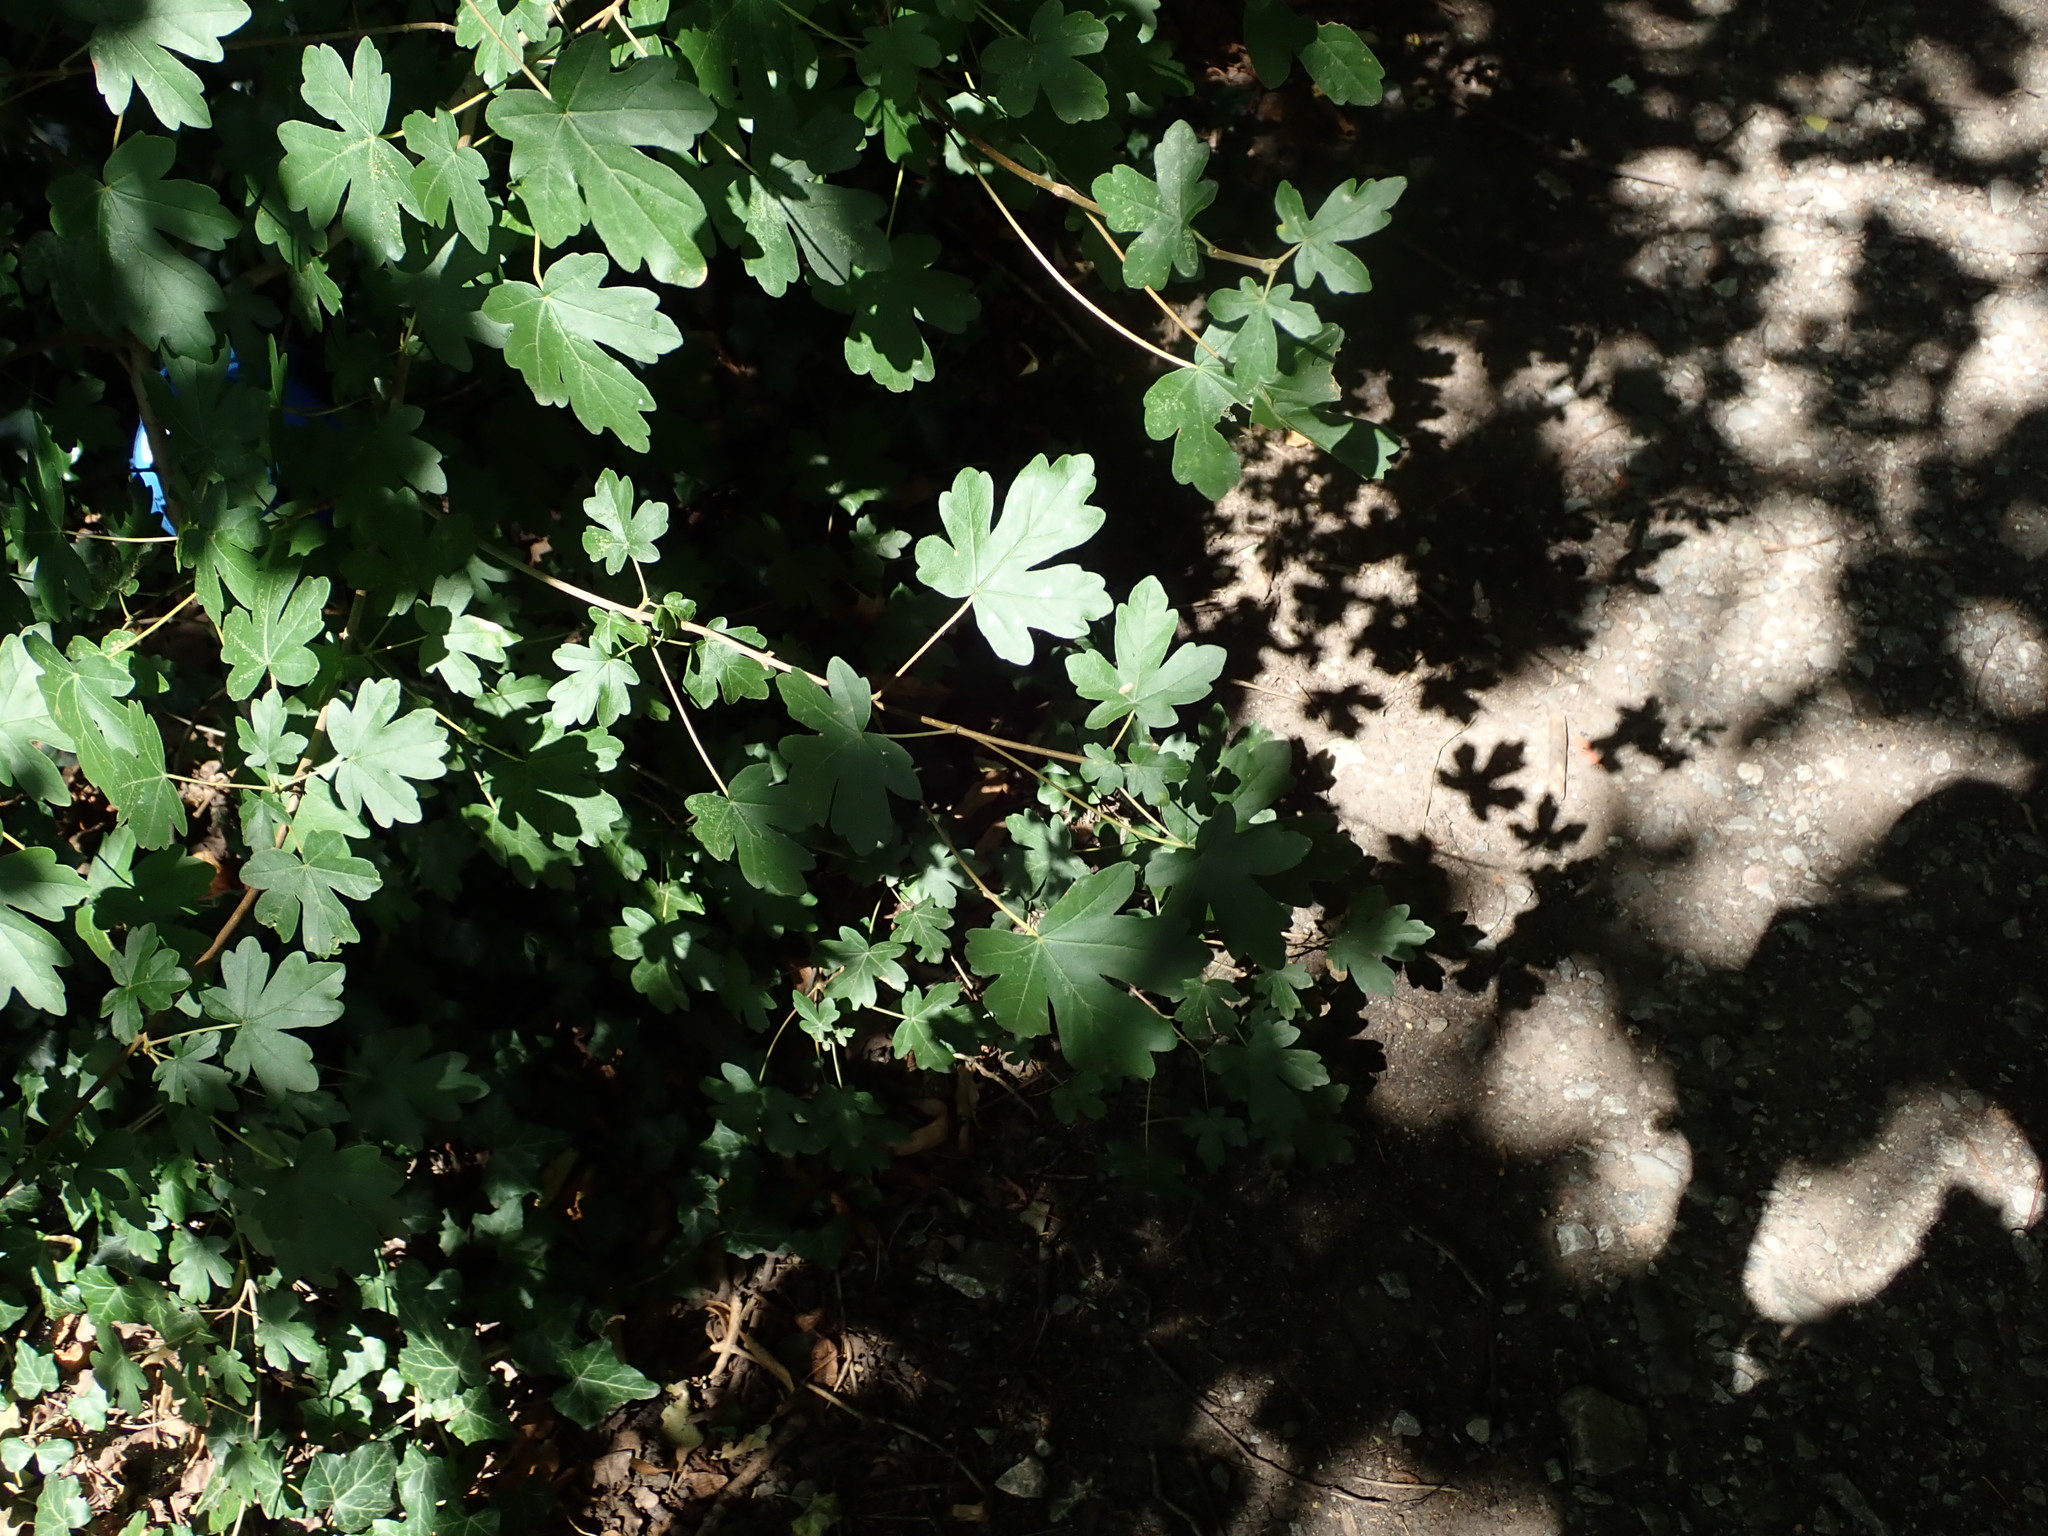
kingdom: Plantae
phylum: Tracheophyta
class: Magnoliopsida
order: Sapindales
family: Sapindaceae
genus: Acer
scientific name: Acer campestre
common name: Field maple
